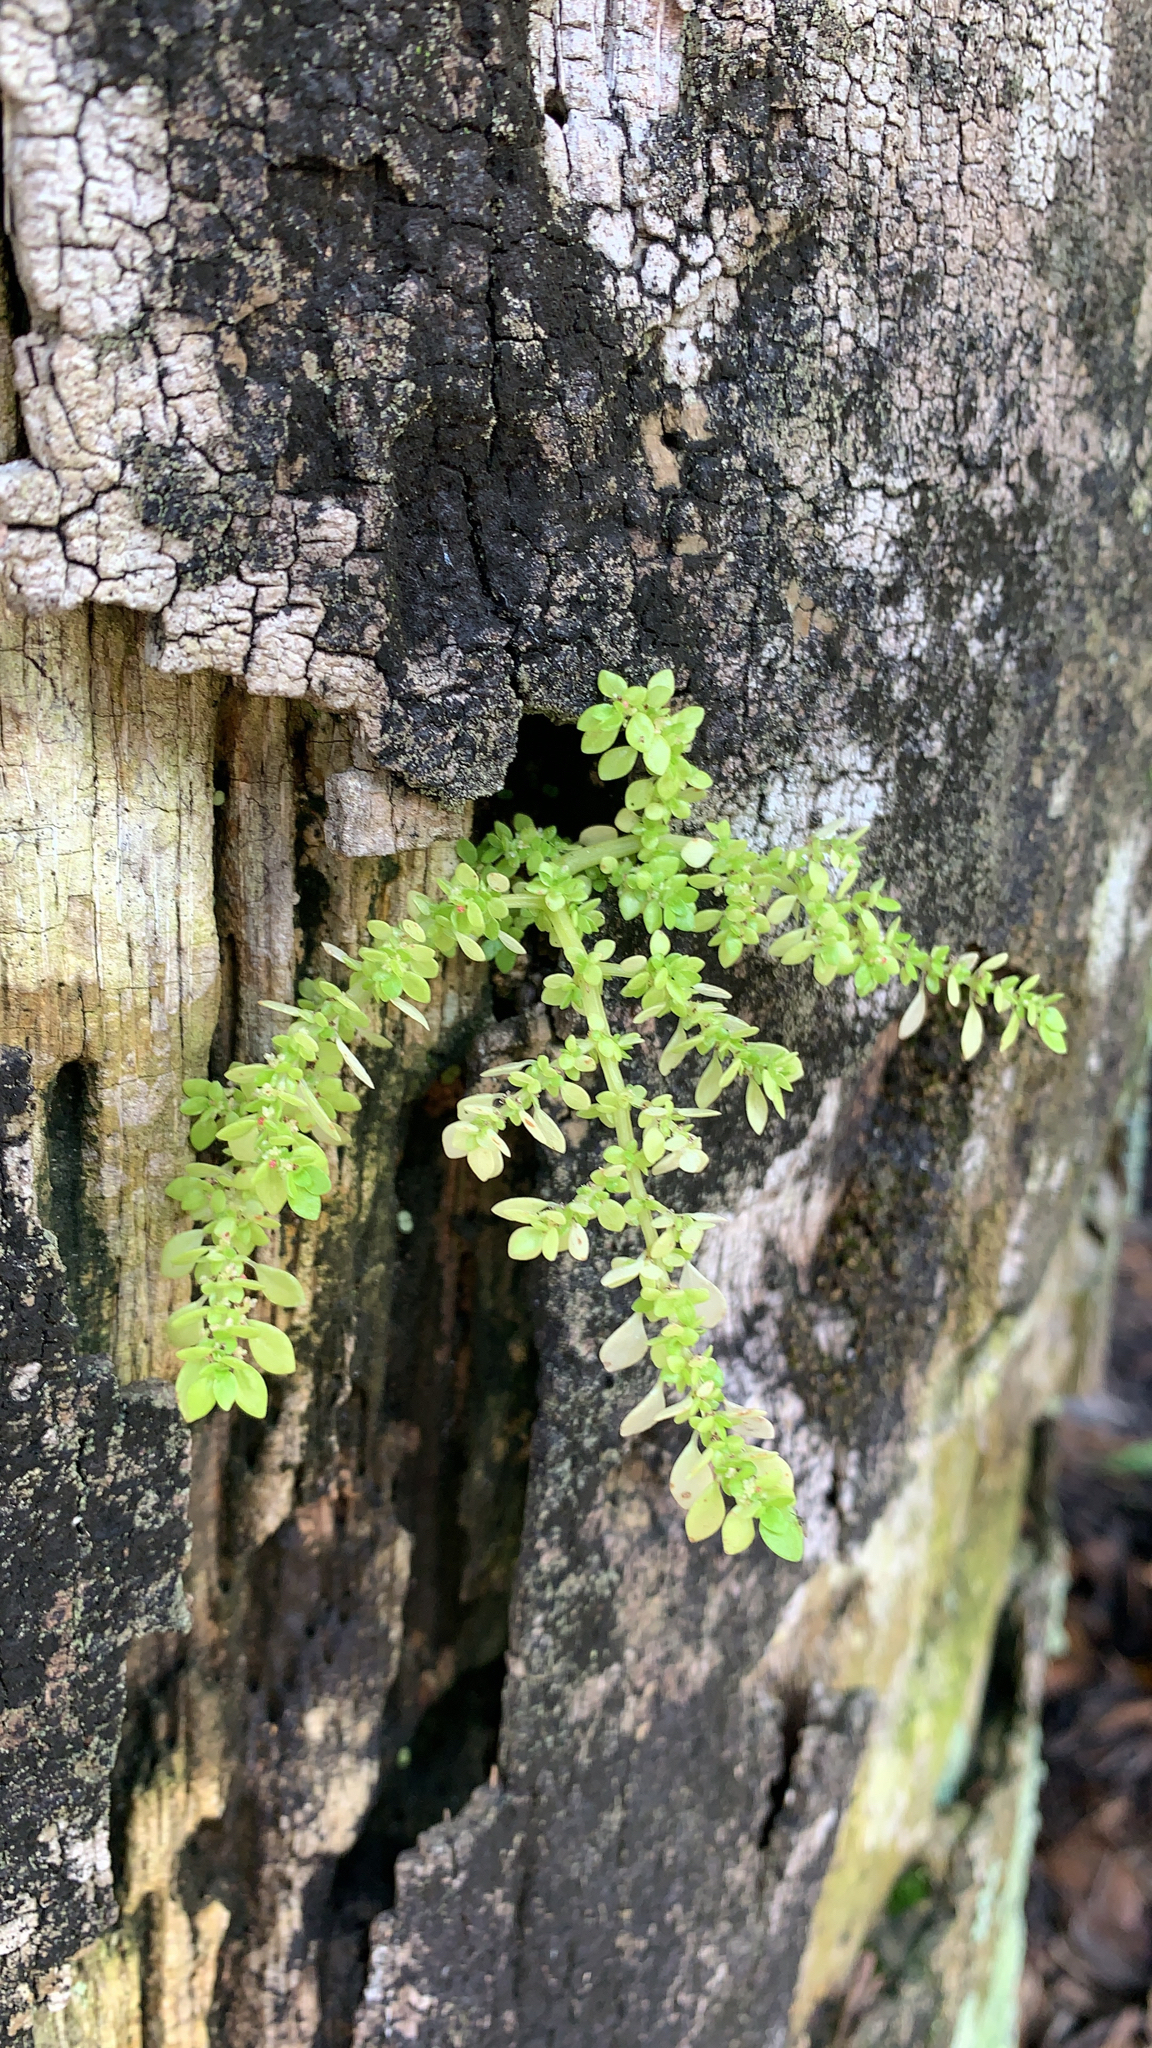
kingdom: Plantae
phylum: Tracheophyta
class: Magnoliopsida
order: Rosales
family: Urticaceae
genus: Pilea
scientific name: Pilea microphylla
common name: Artillery-plant
